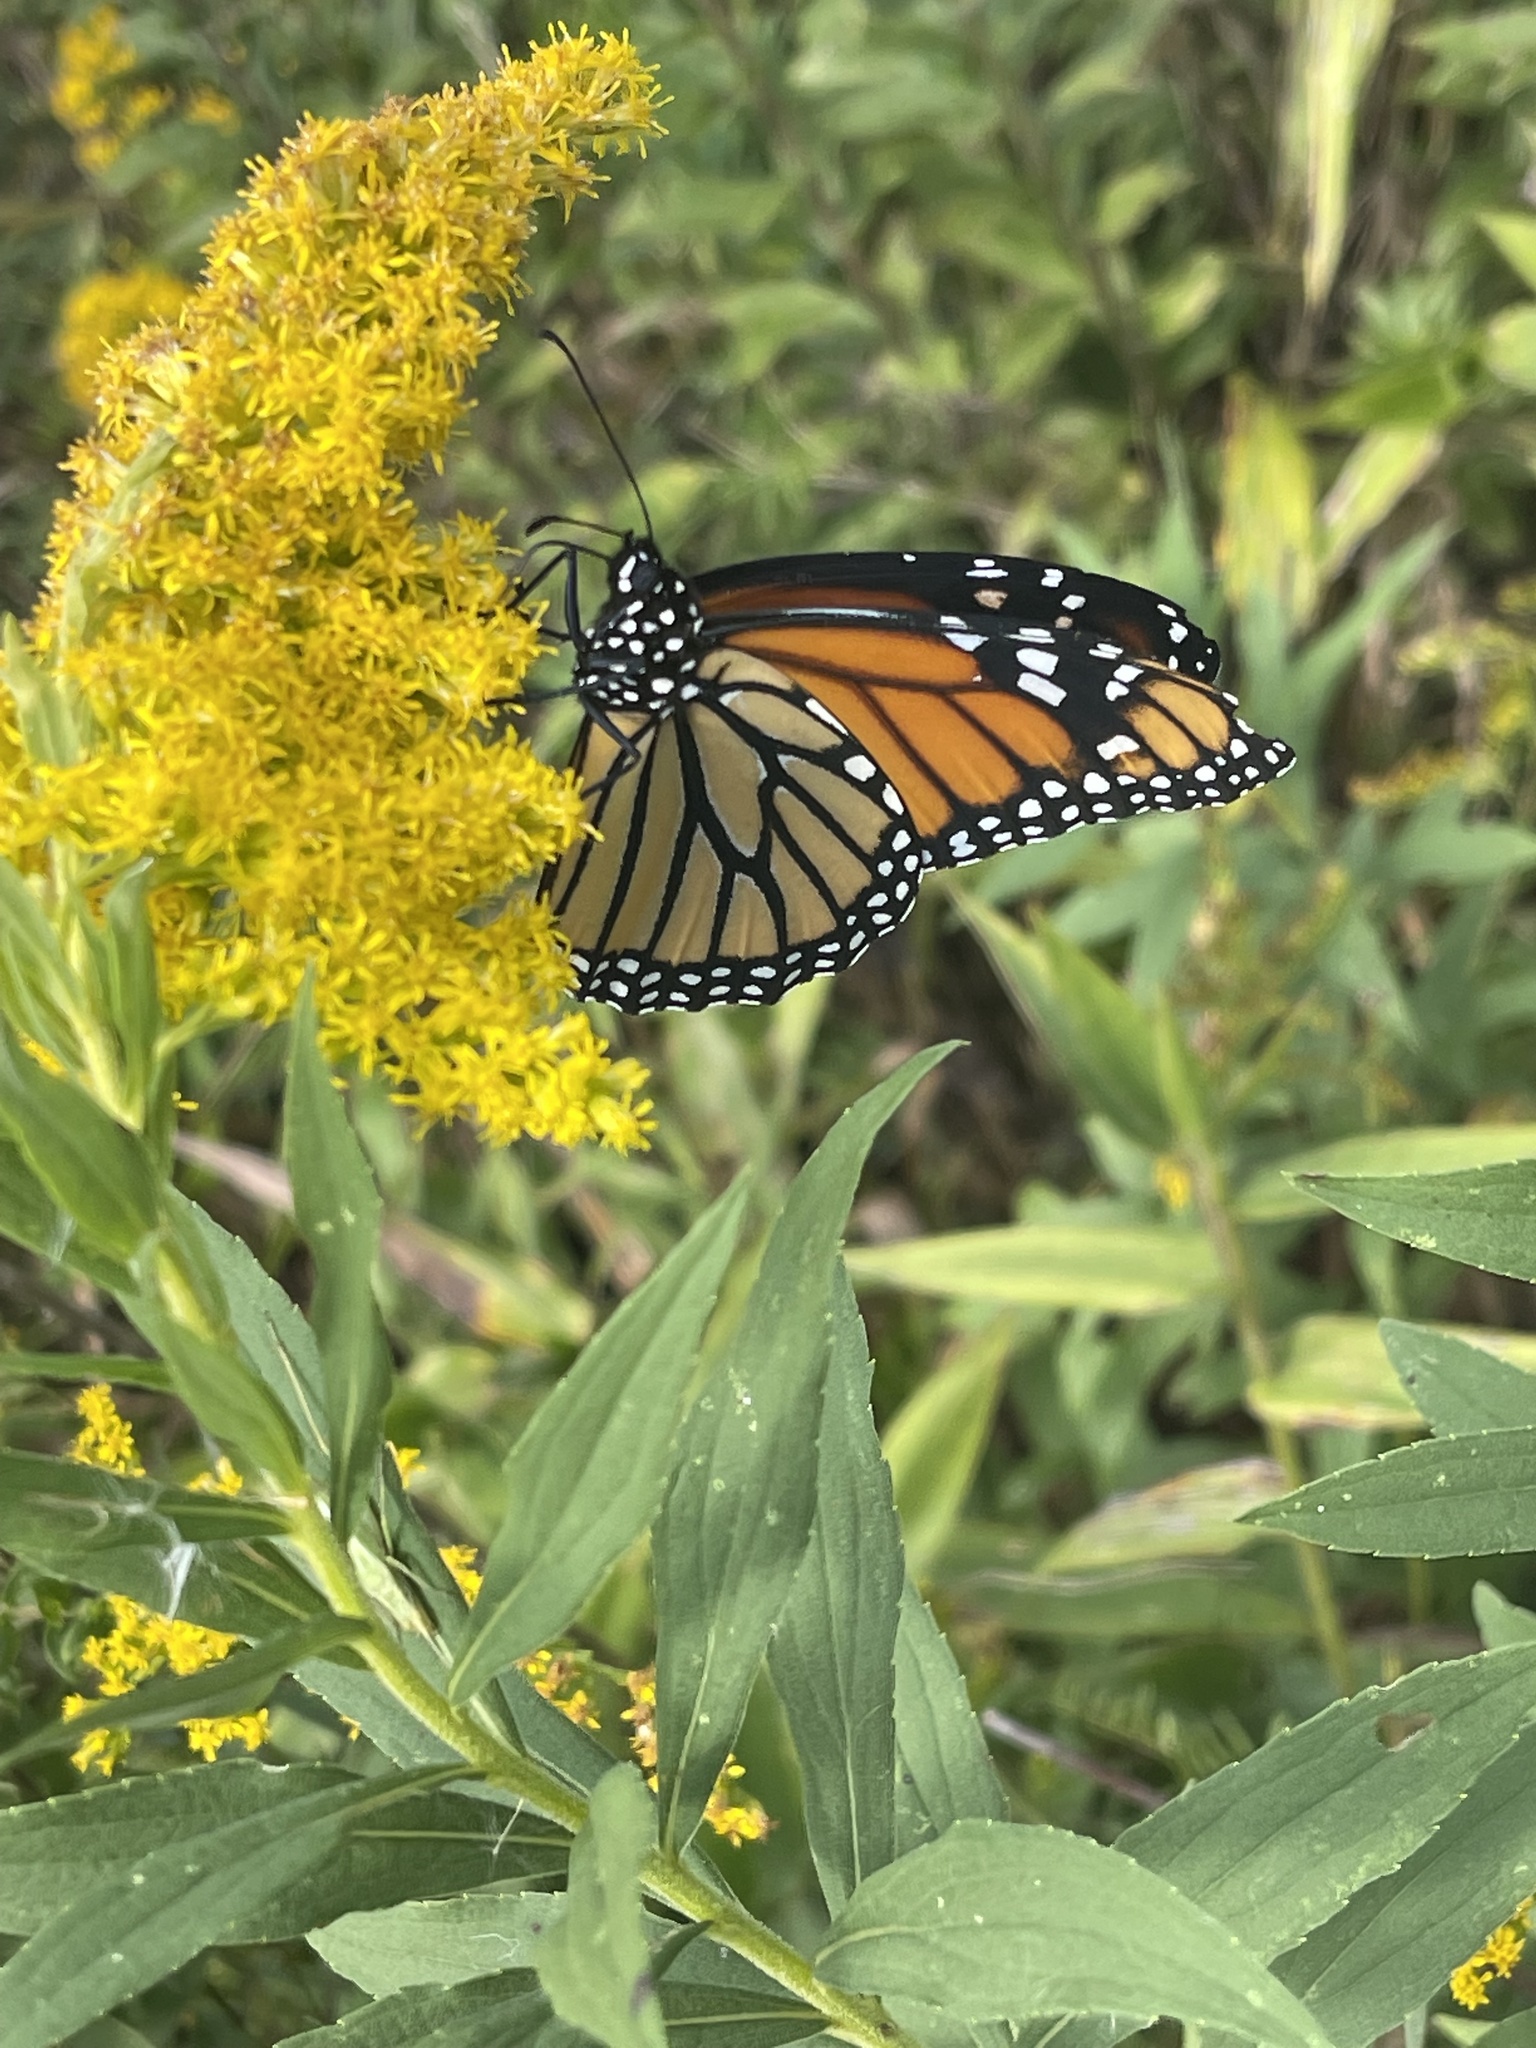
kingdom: Animalia
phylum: Arthropoda
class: Insecta
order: Lepidoptera
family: Nymphalidae
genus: Danaus
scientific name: Danaus plexippus
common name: Monarch
